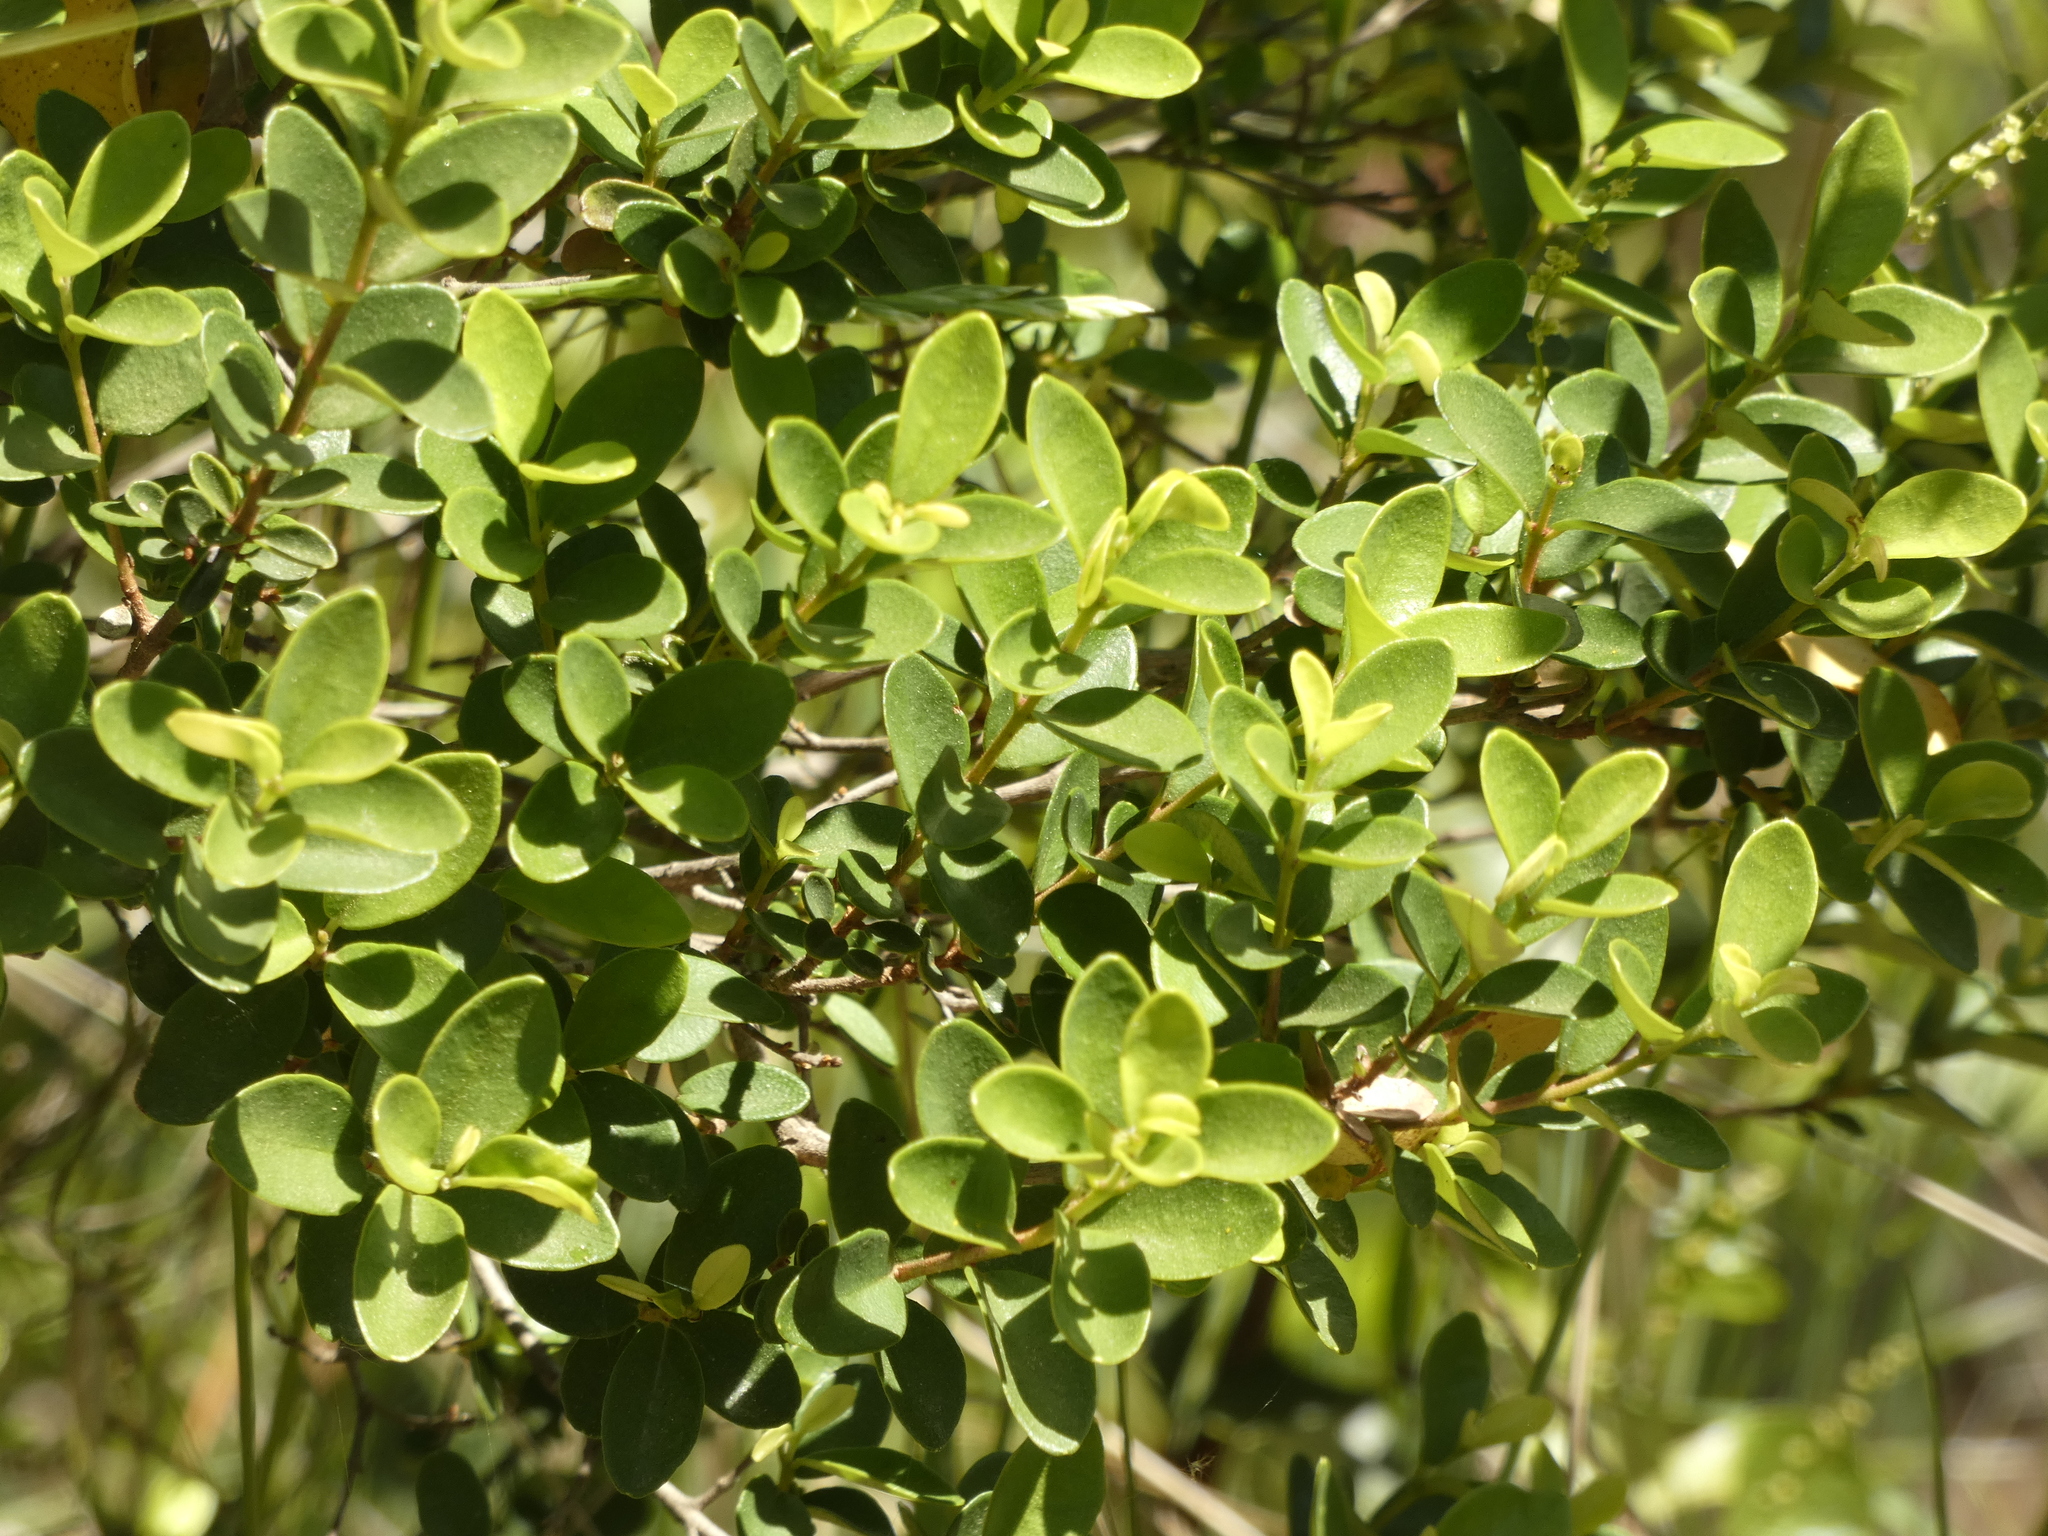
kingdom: Plantae
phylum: Tracheophyta
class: Magnoliopsida
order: Myrtales
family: Myrtaceae
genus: Myrceugenia
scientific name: Myrceugenia obtusa
